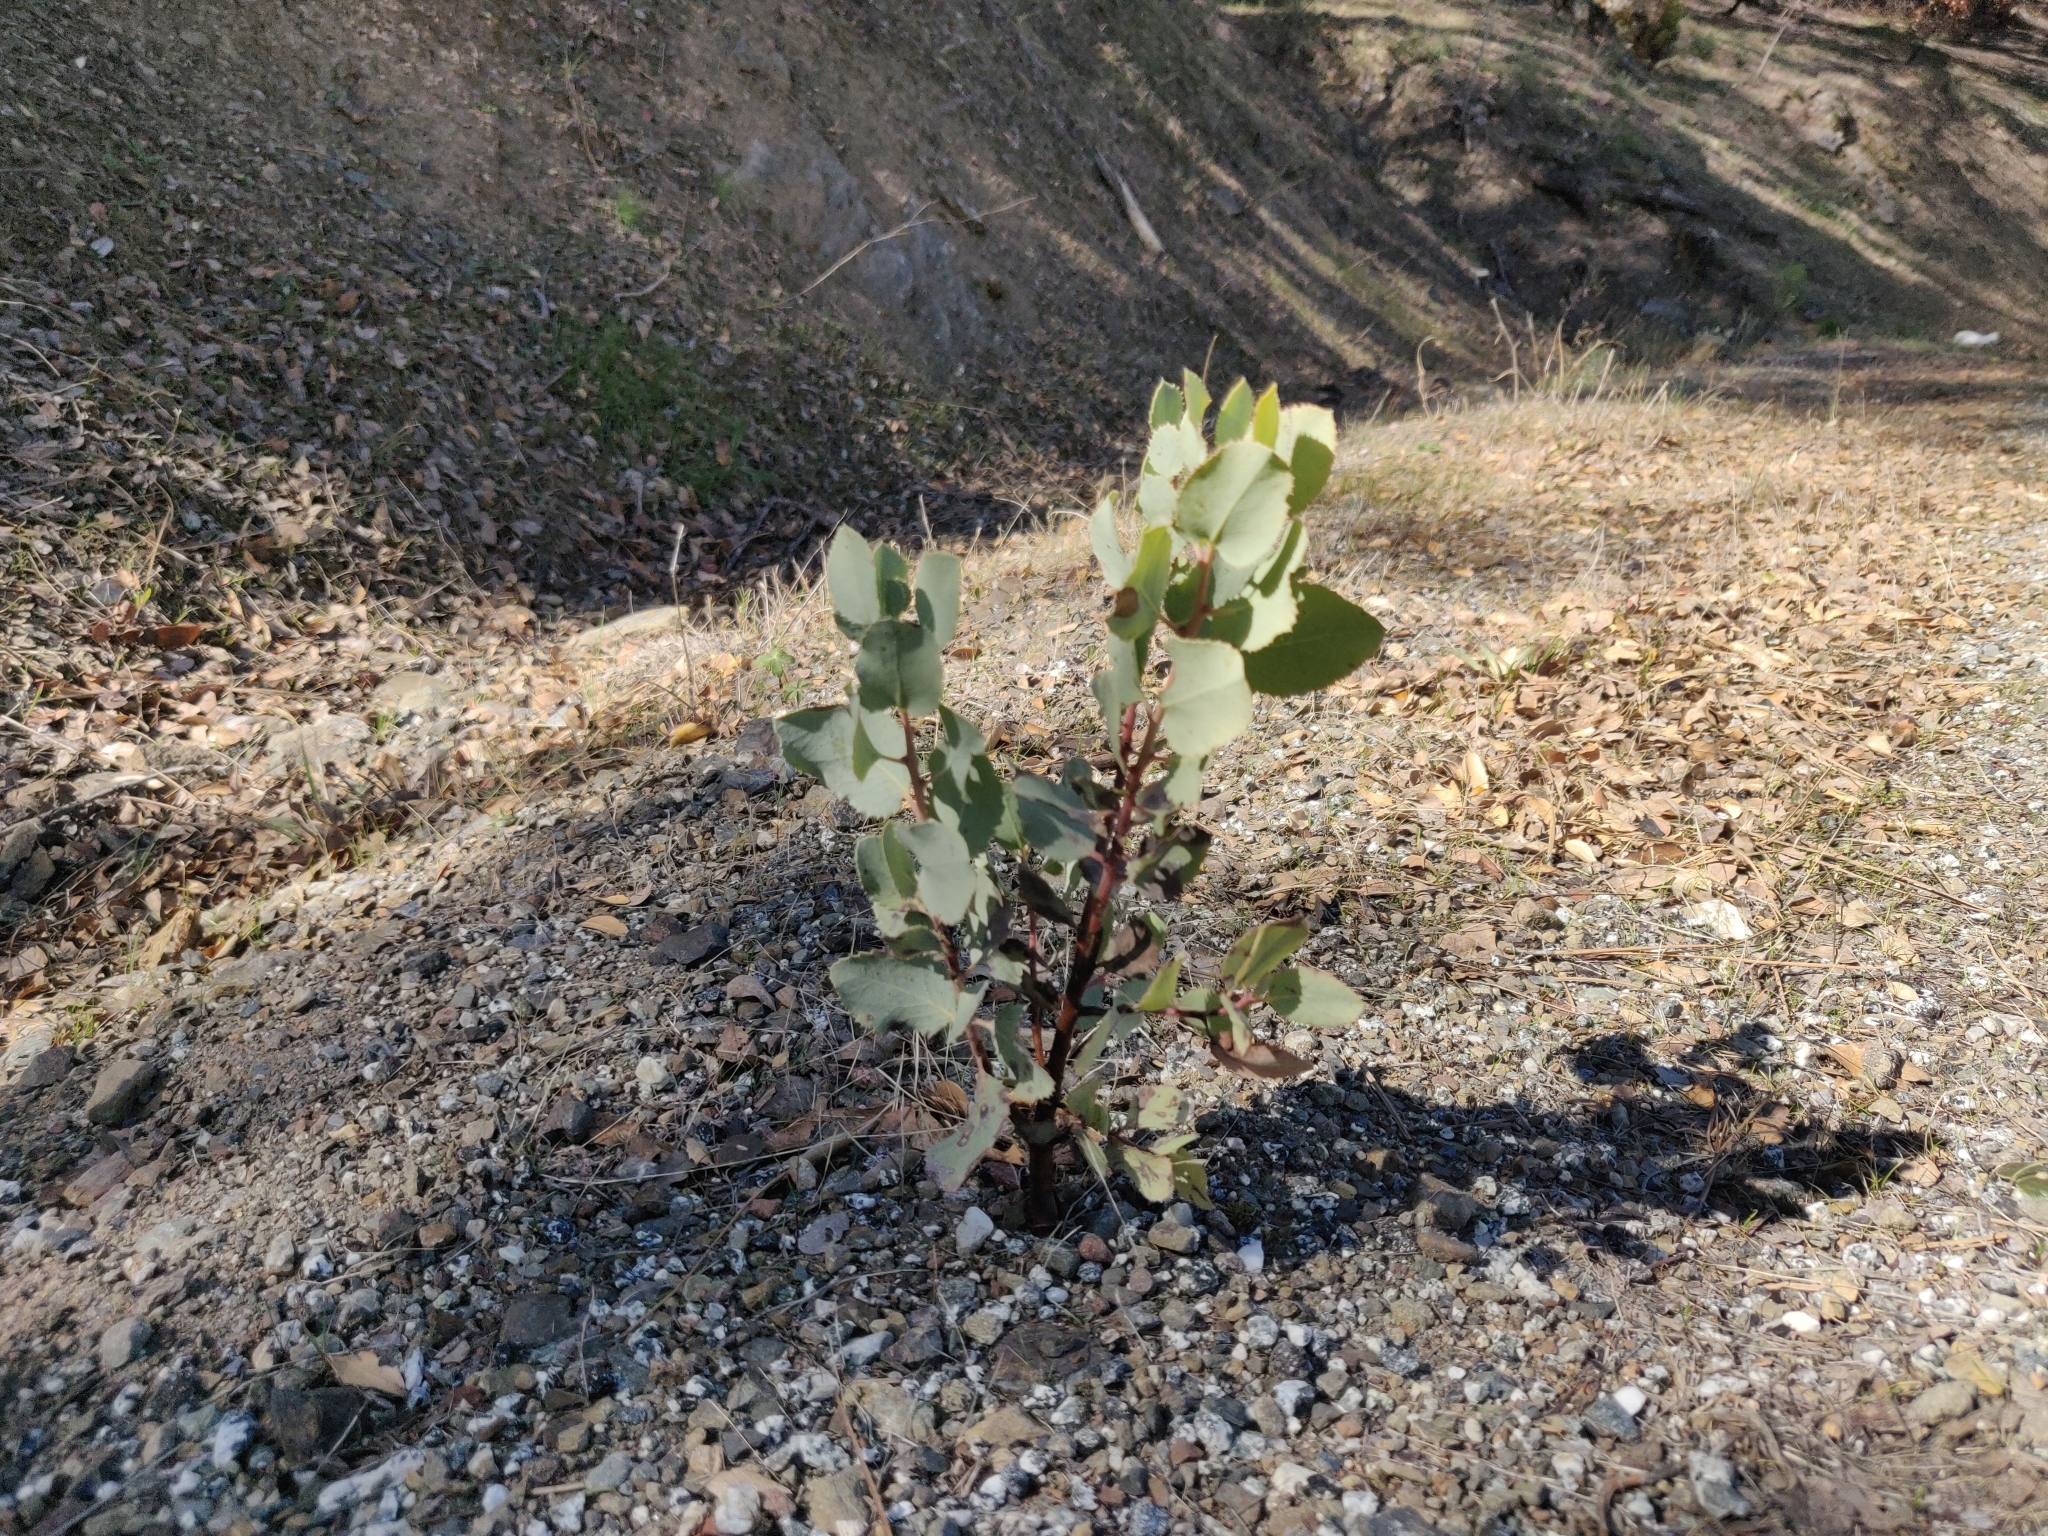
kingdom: Plantae
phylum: Tracheophyta
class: Magnoliopsida
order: Ericales
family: Ericaceae
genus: Arctostaphylos
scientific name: Arctostaphylos glauca
